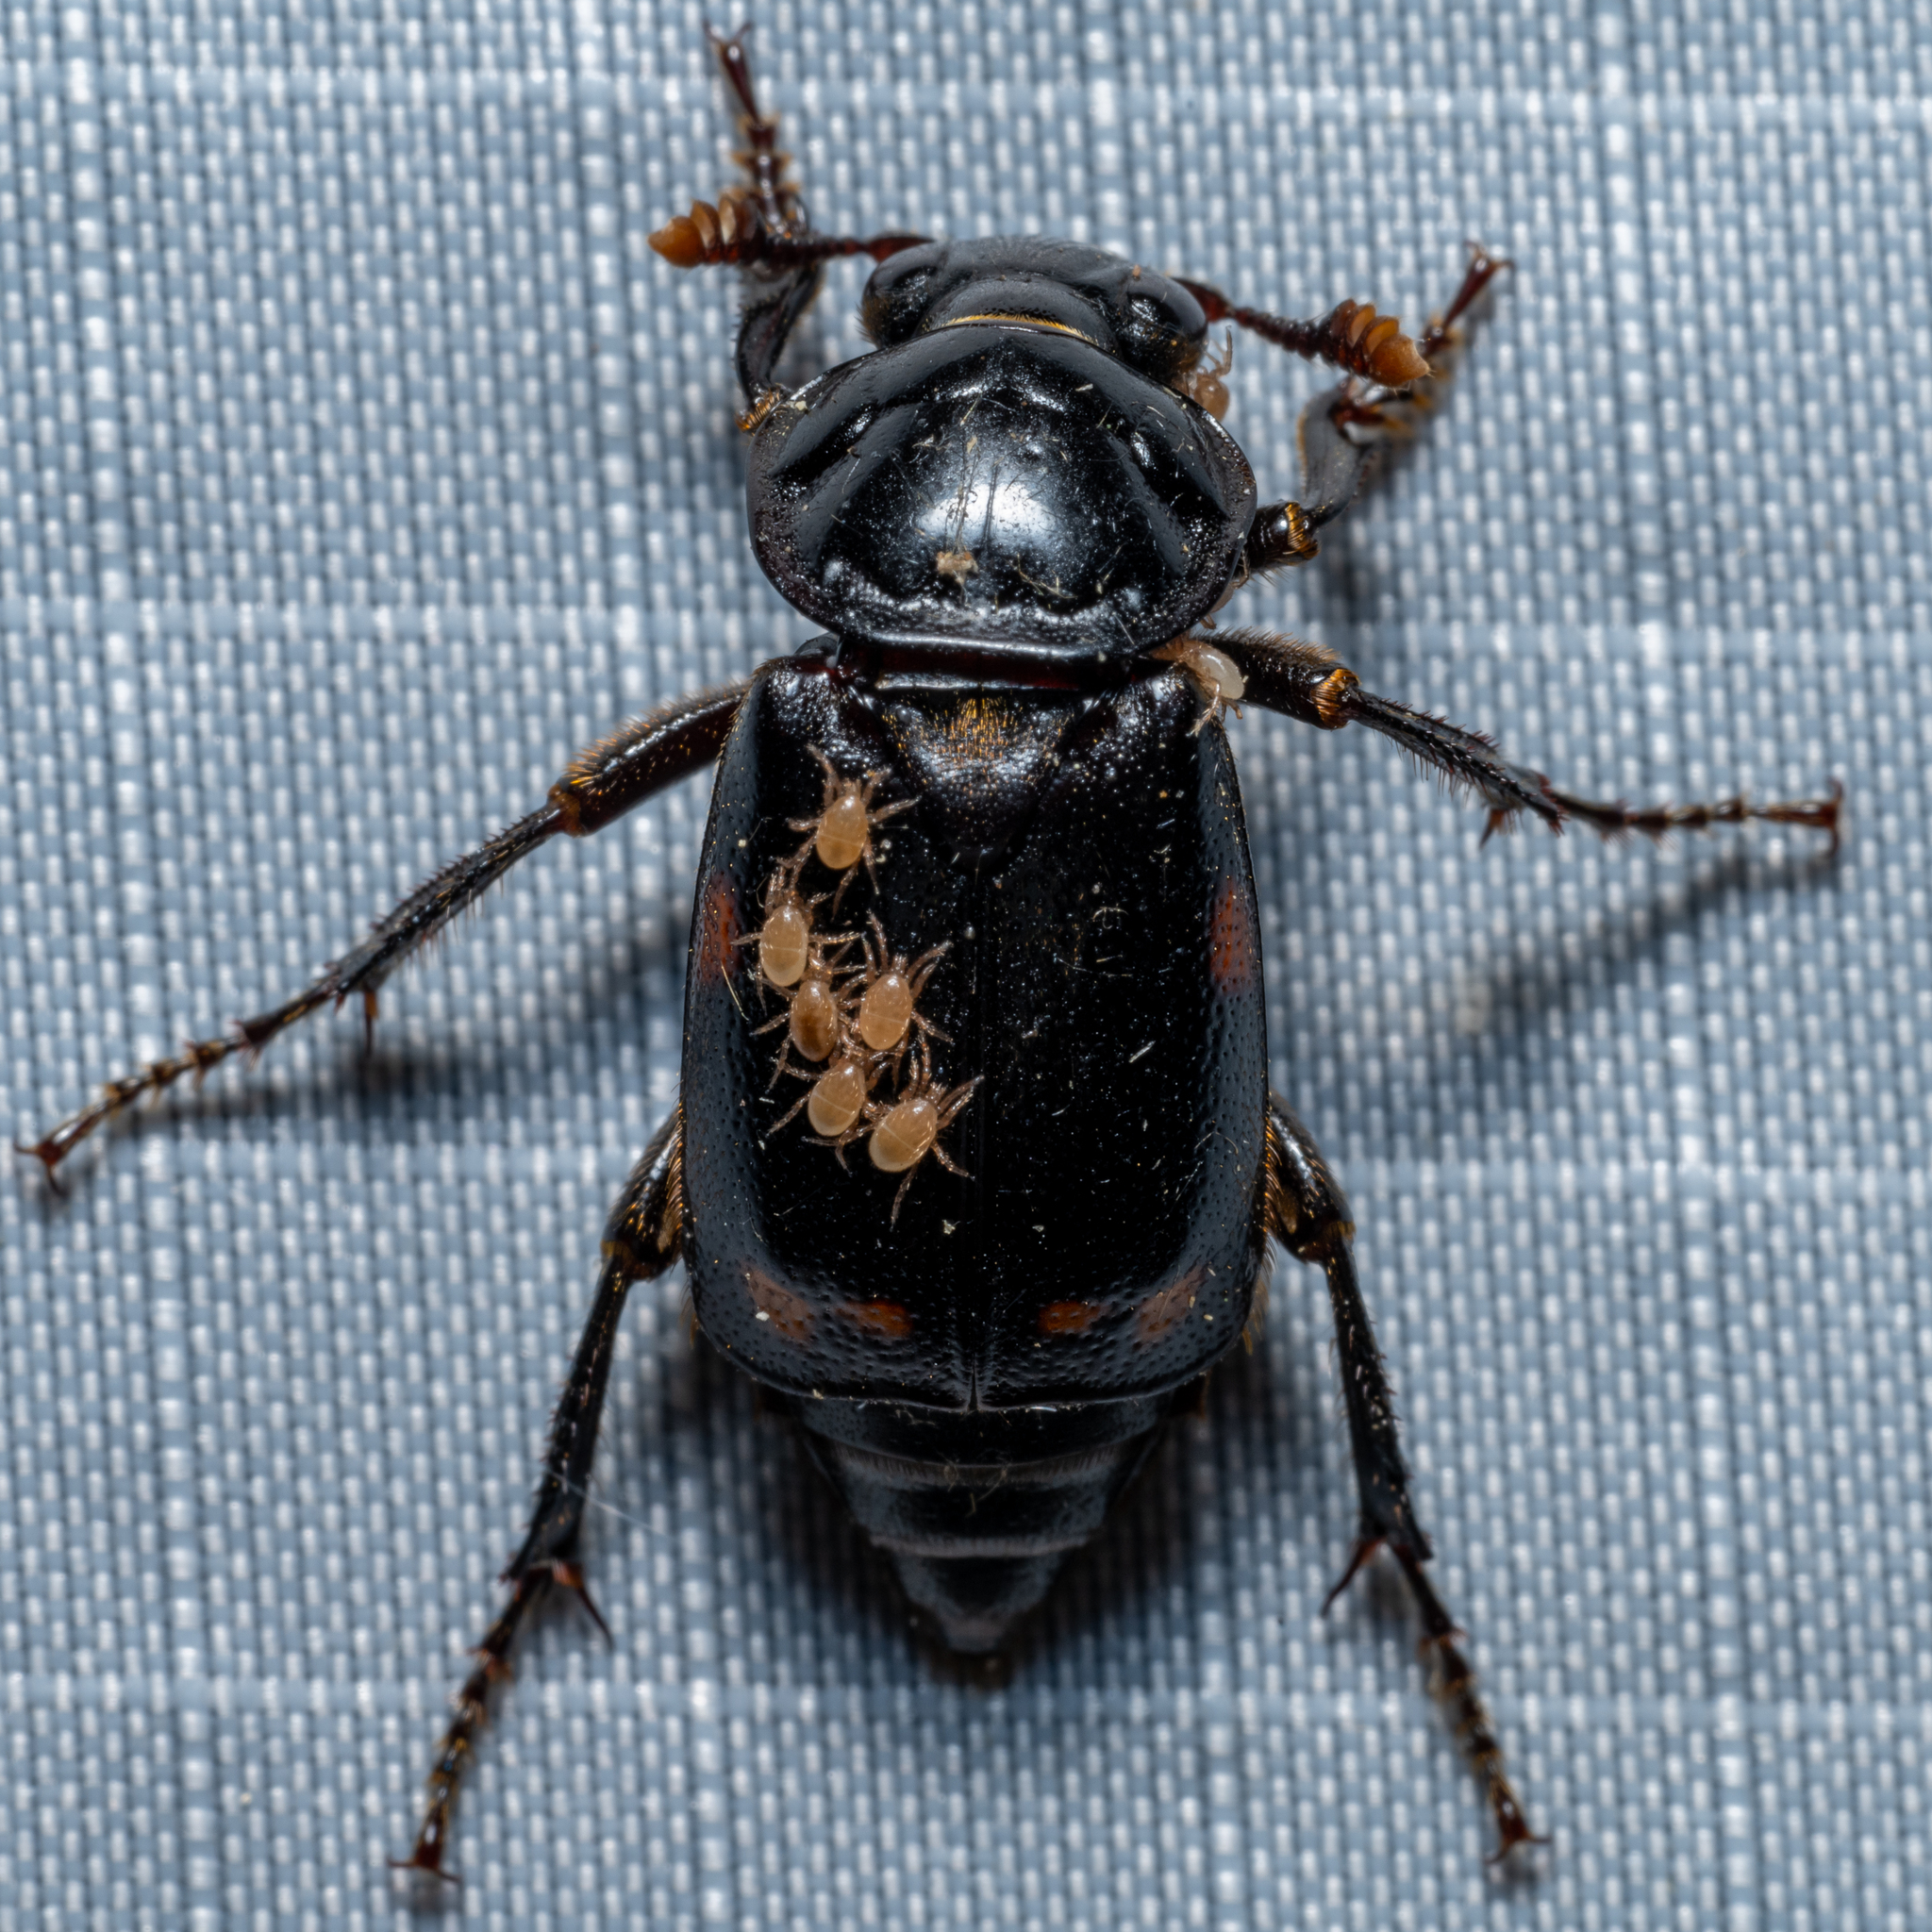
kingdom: Animalia
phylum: Arthropoda
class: Insecta
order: Coleoptera
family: Staphylinidae
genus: Nicrophorus
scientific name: Nicrophorus pustulatus
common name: Pustulated carrion beetle
